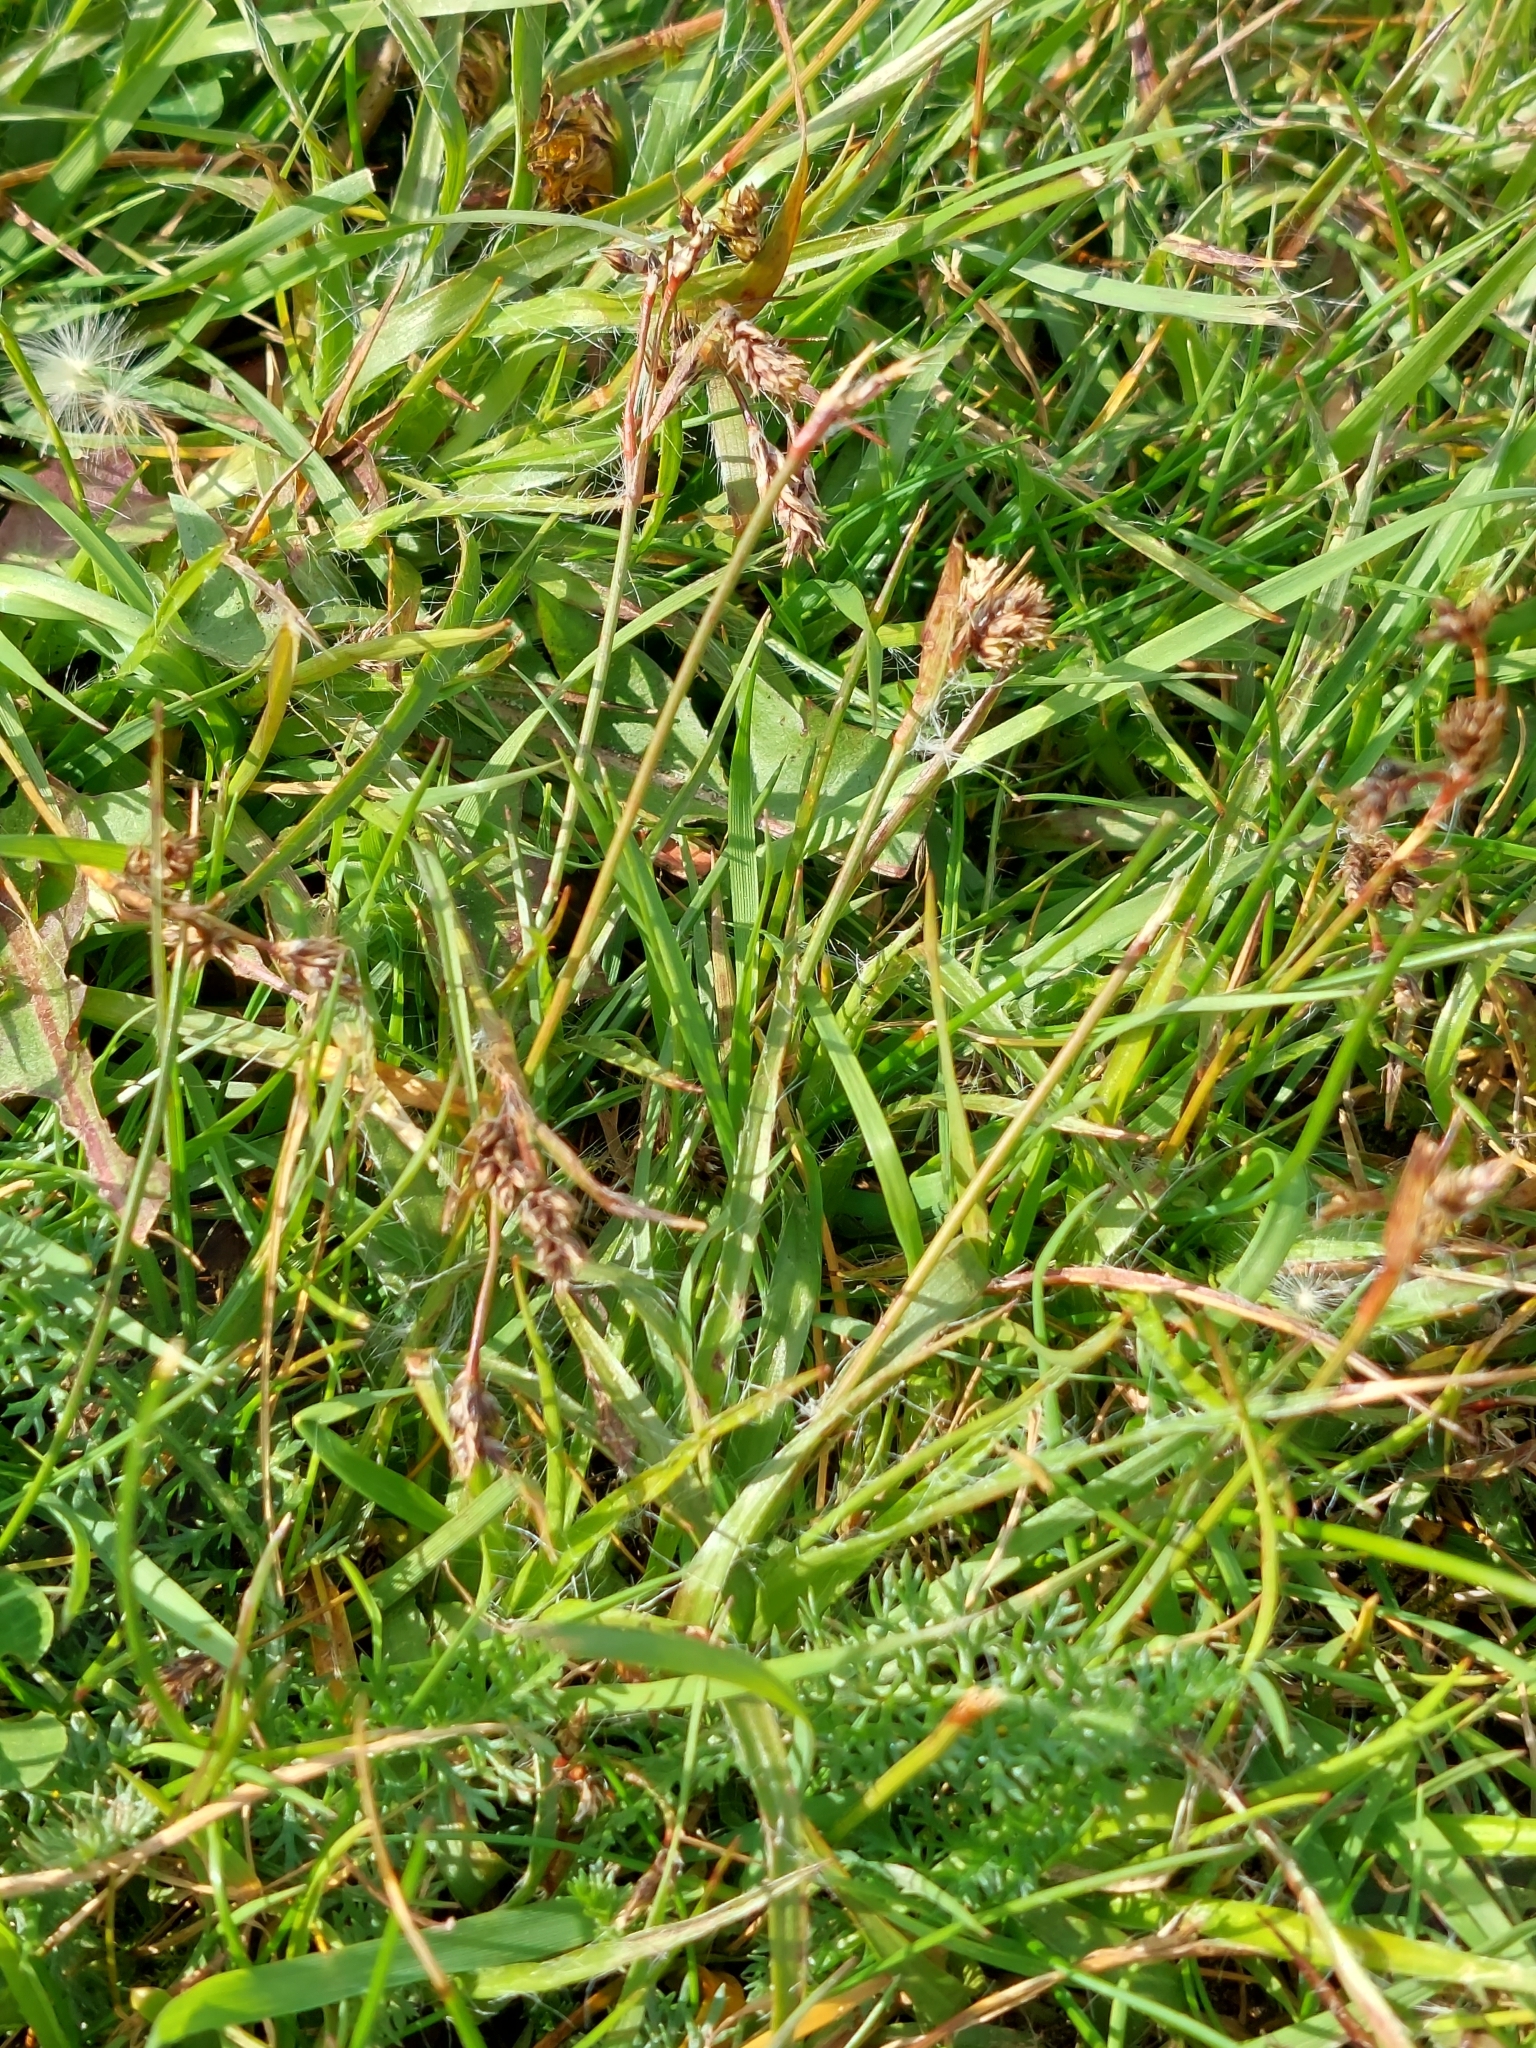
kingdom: Plantae
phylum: Tracheophyta
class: Liliopsida
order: Poales
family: Juncaceae
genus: Luzula
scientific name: Luzula campestris
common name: Field wood-rush
